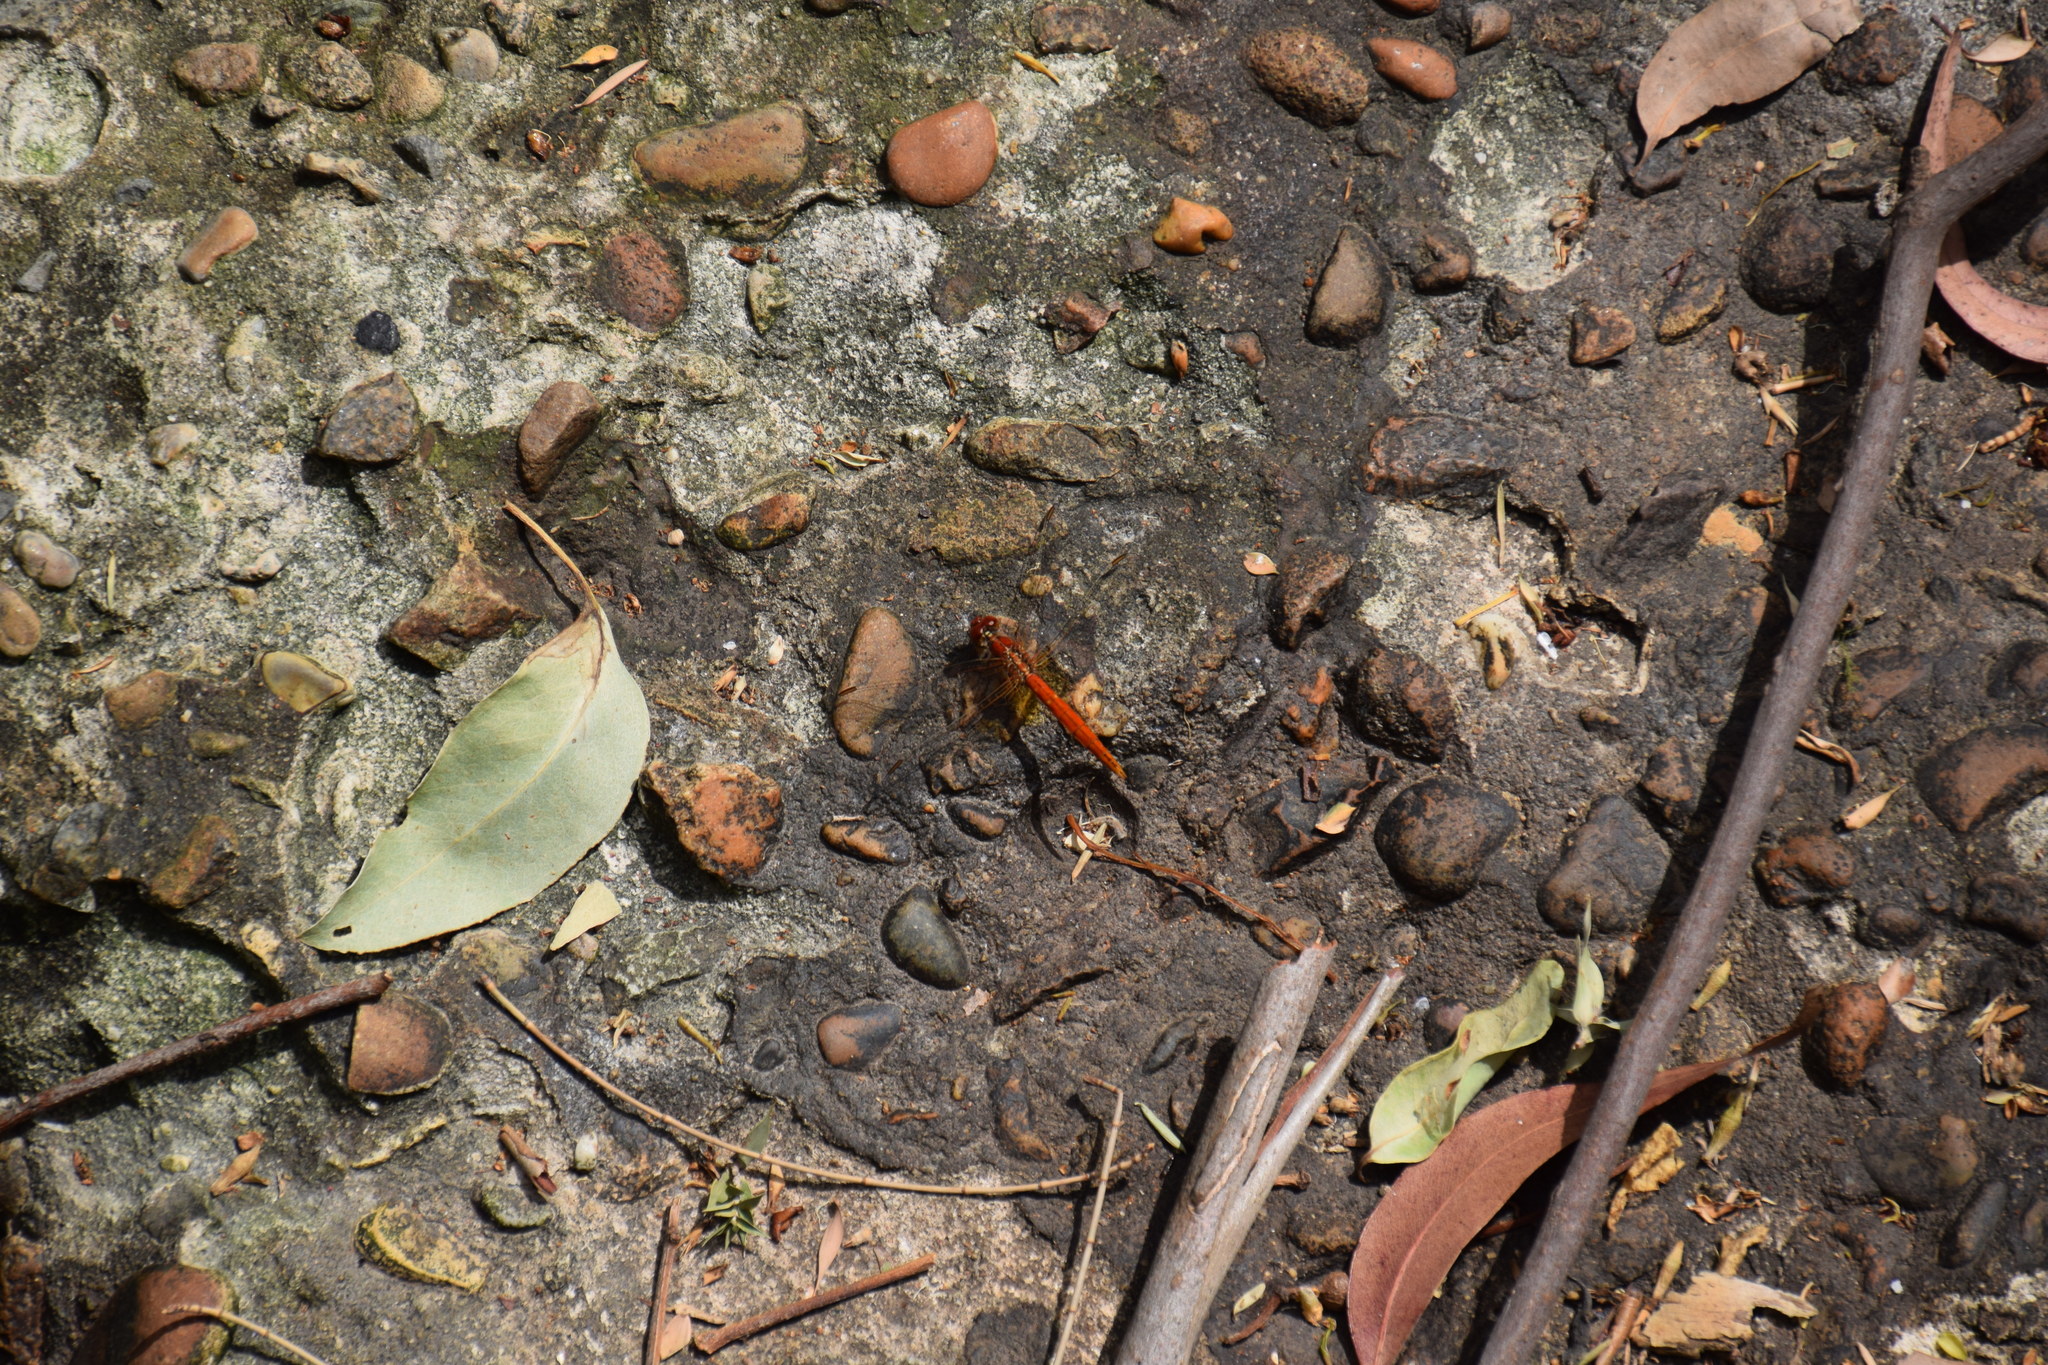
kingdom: Animalia
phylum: Arthropoda
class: Insecta
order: Odonata
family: Libellulidae
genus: Diplacodes
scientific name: Diplacodes haematodes
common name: Scarlet percher
